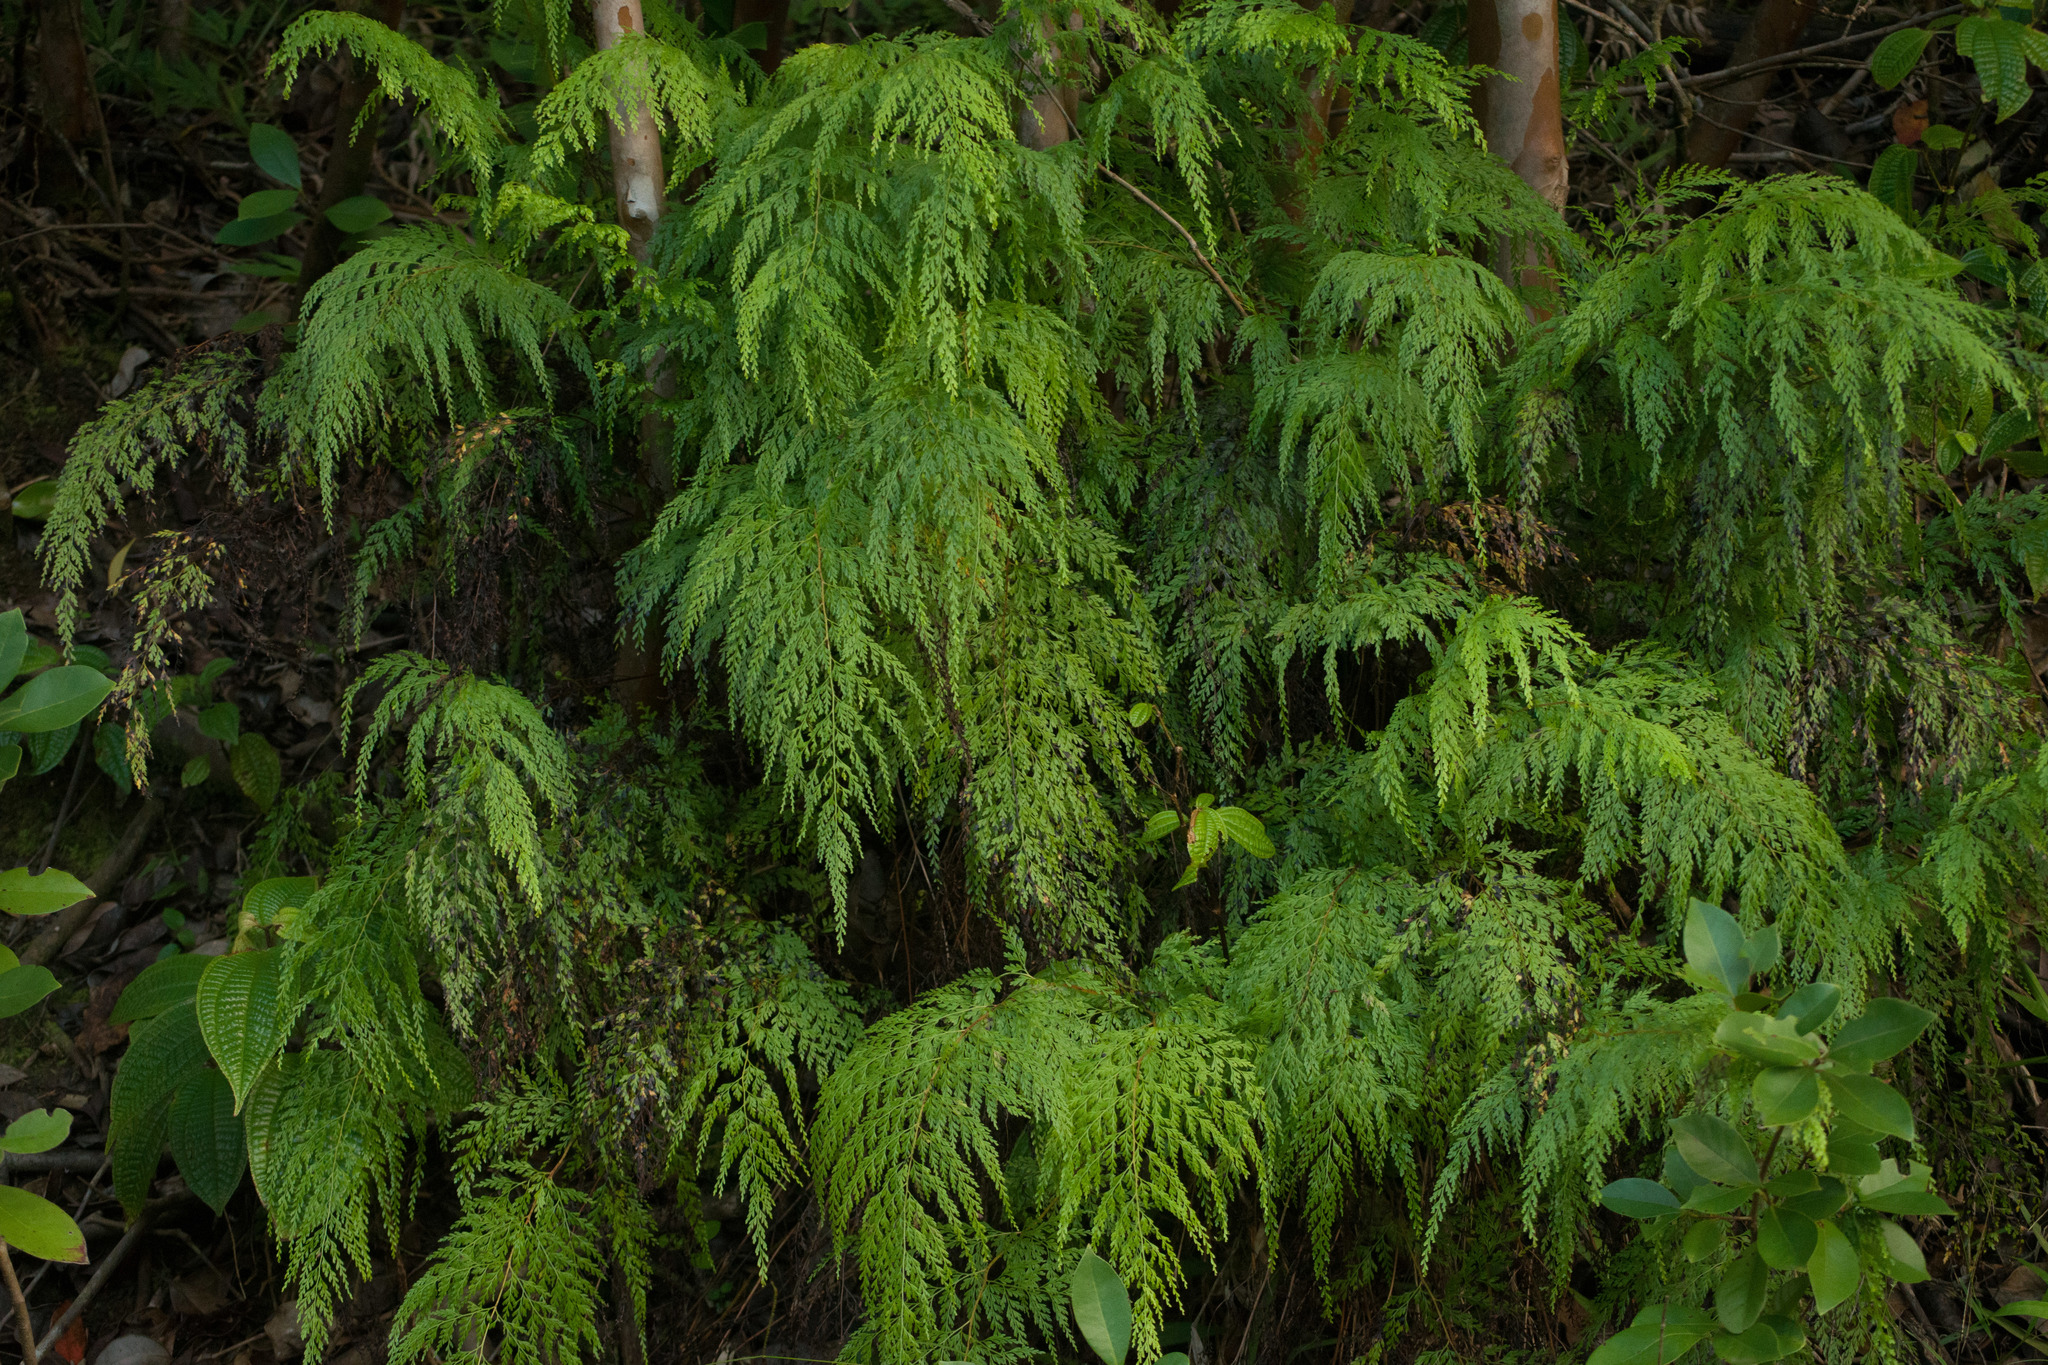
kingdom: Plantae
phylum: Tracheophyta
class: Polypodiopsida
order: Polypodiales
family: Lindsaeaceae
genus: Odontosoria
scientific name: Odontosoria chinensis
